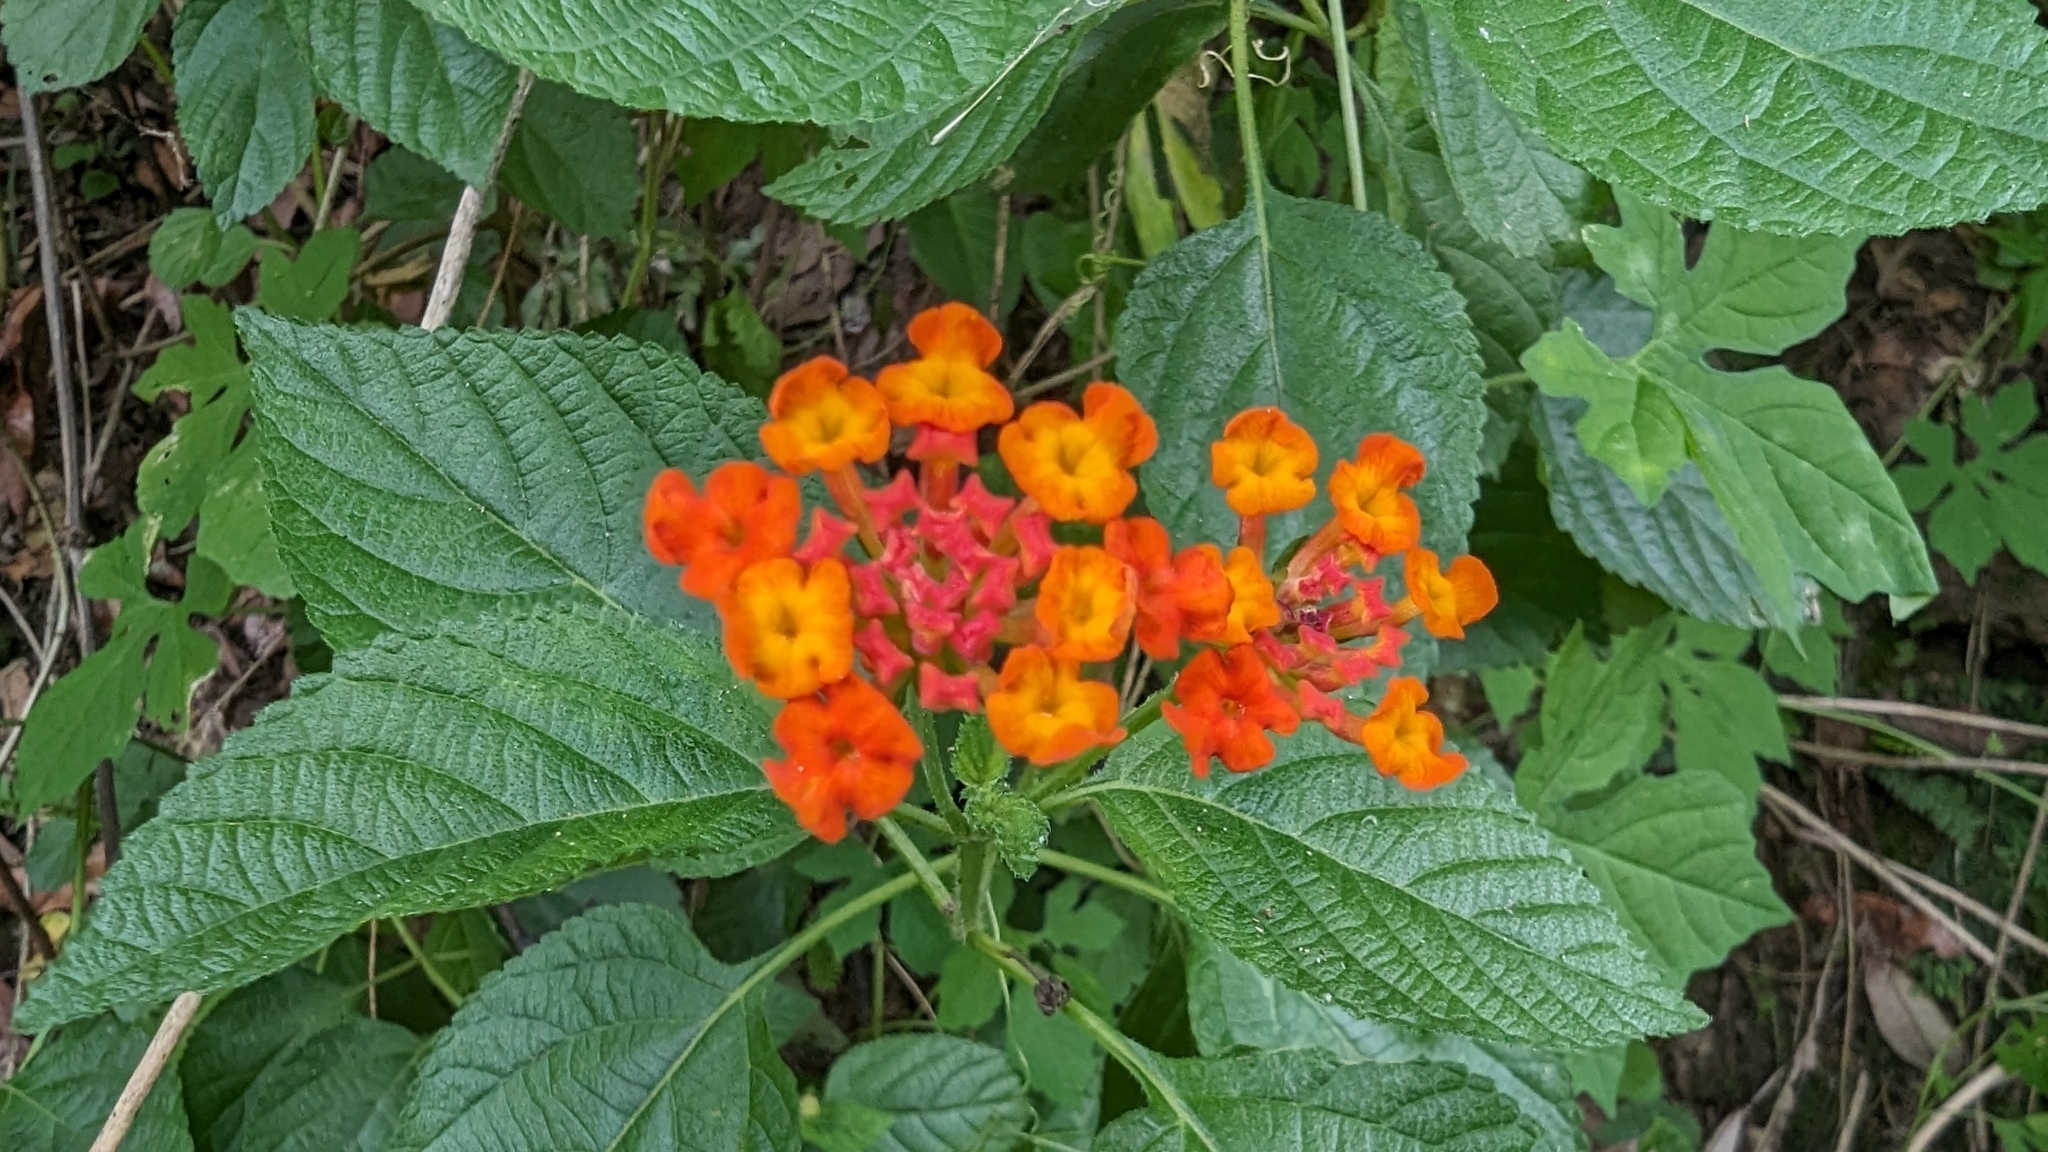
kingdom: Plantae
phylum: Tracheophyta
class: Magnoliopsida
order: Lamiales
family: Verbenaceae
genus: Lantana
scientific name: Lantana camara
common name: Lantana
